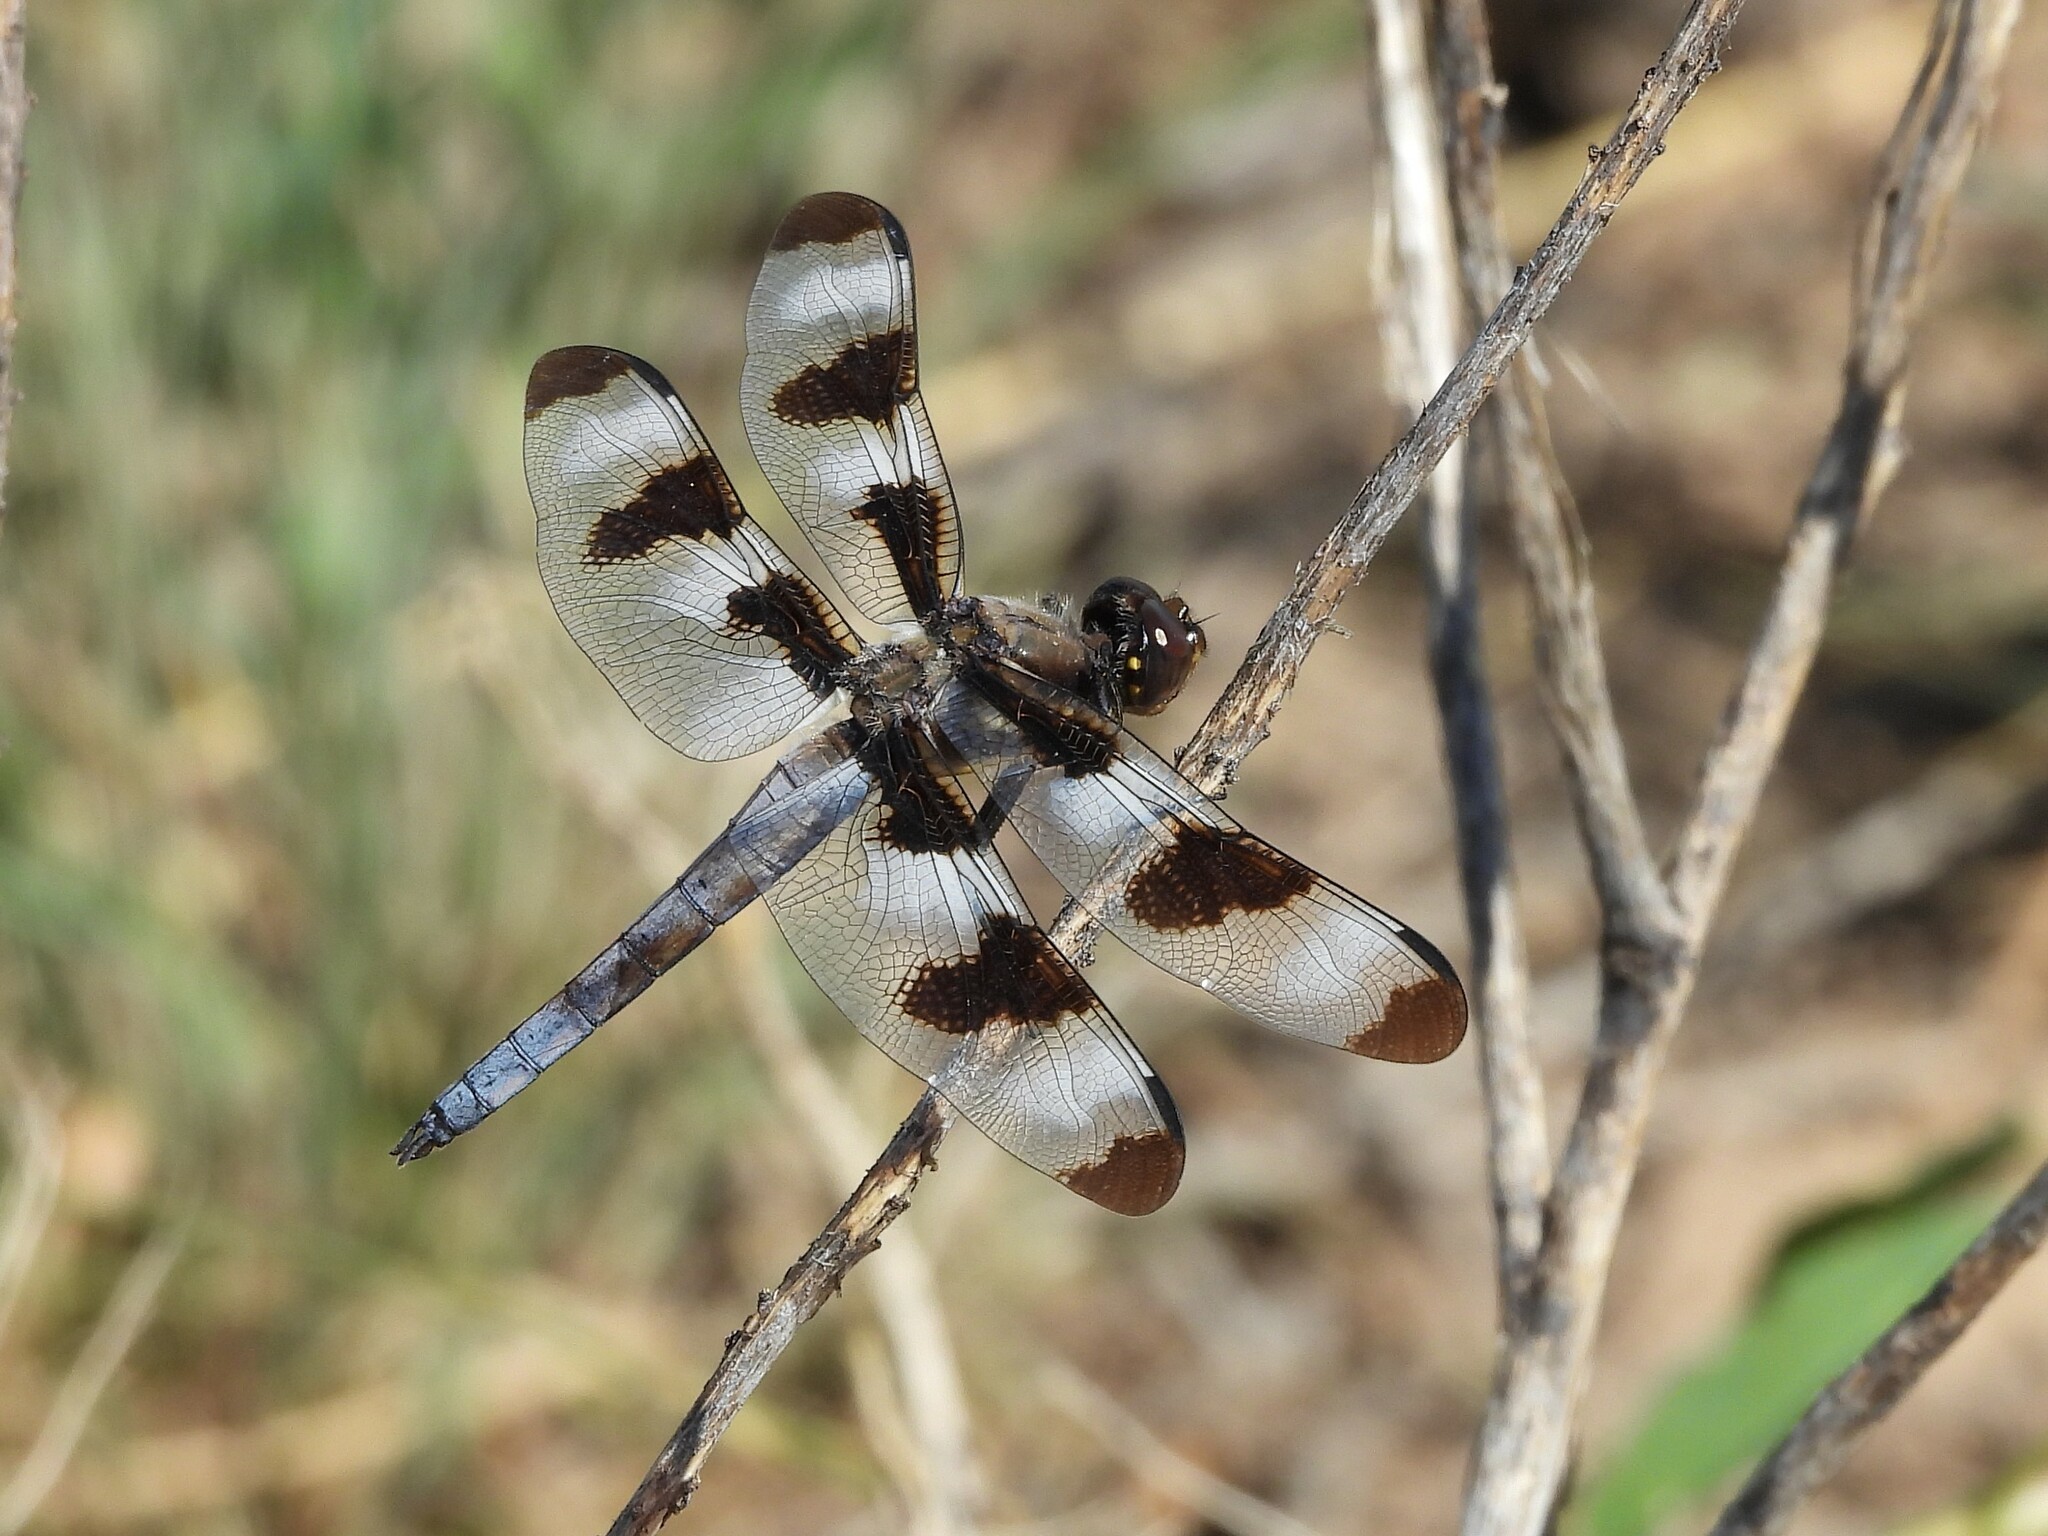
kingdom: Animalia
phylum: Arthropoda
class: Insecta
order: Odonata
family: Libellulidae
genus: Libellula
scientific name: Libellula pulchella
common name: Twelve-spotted skimmer
